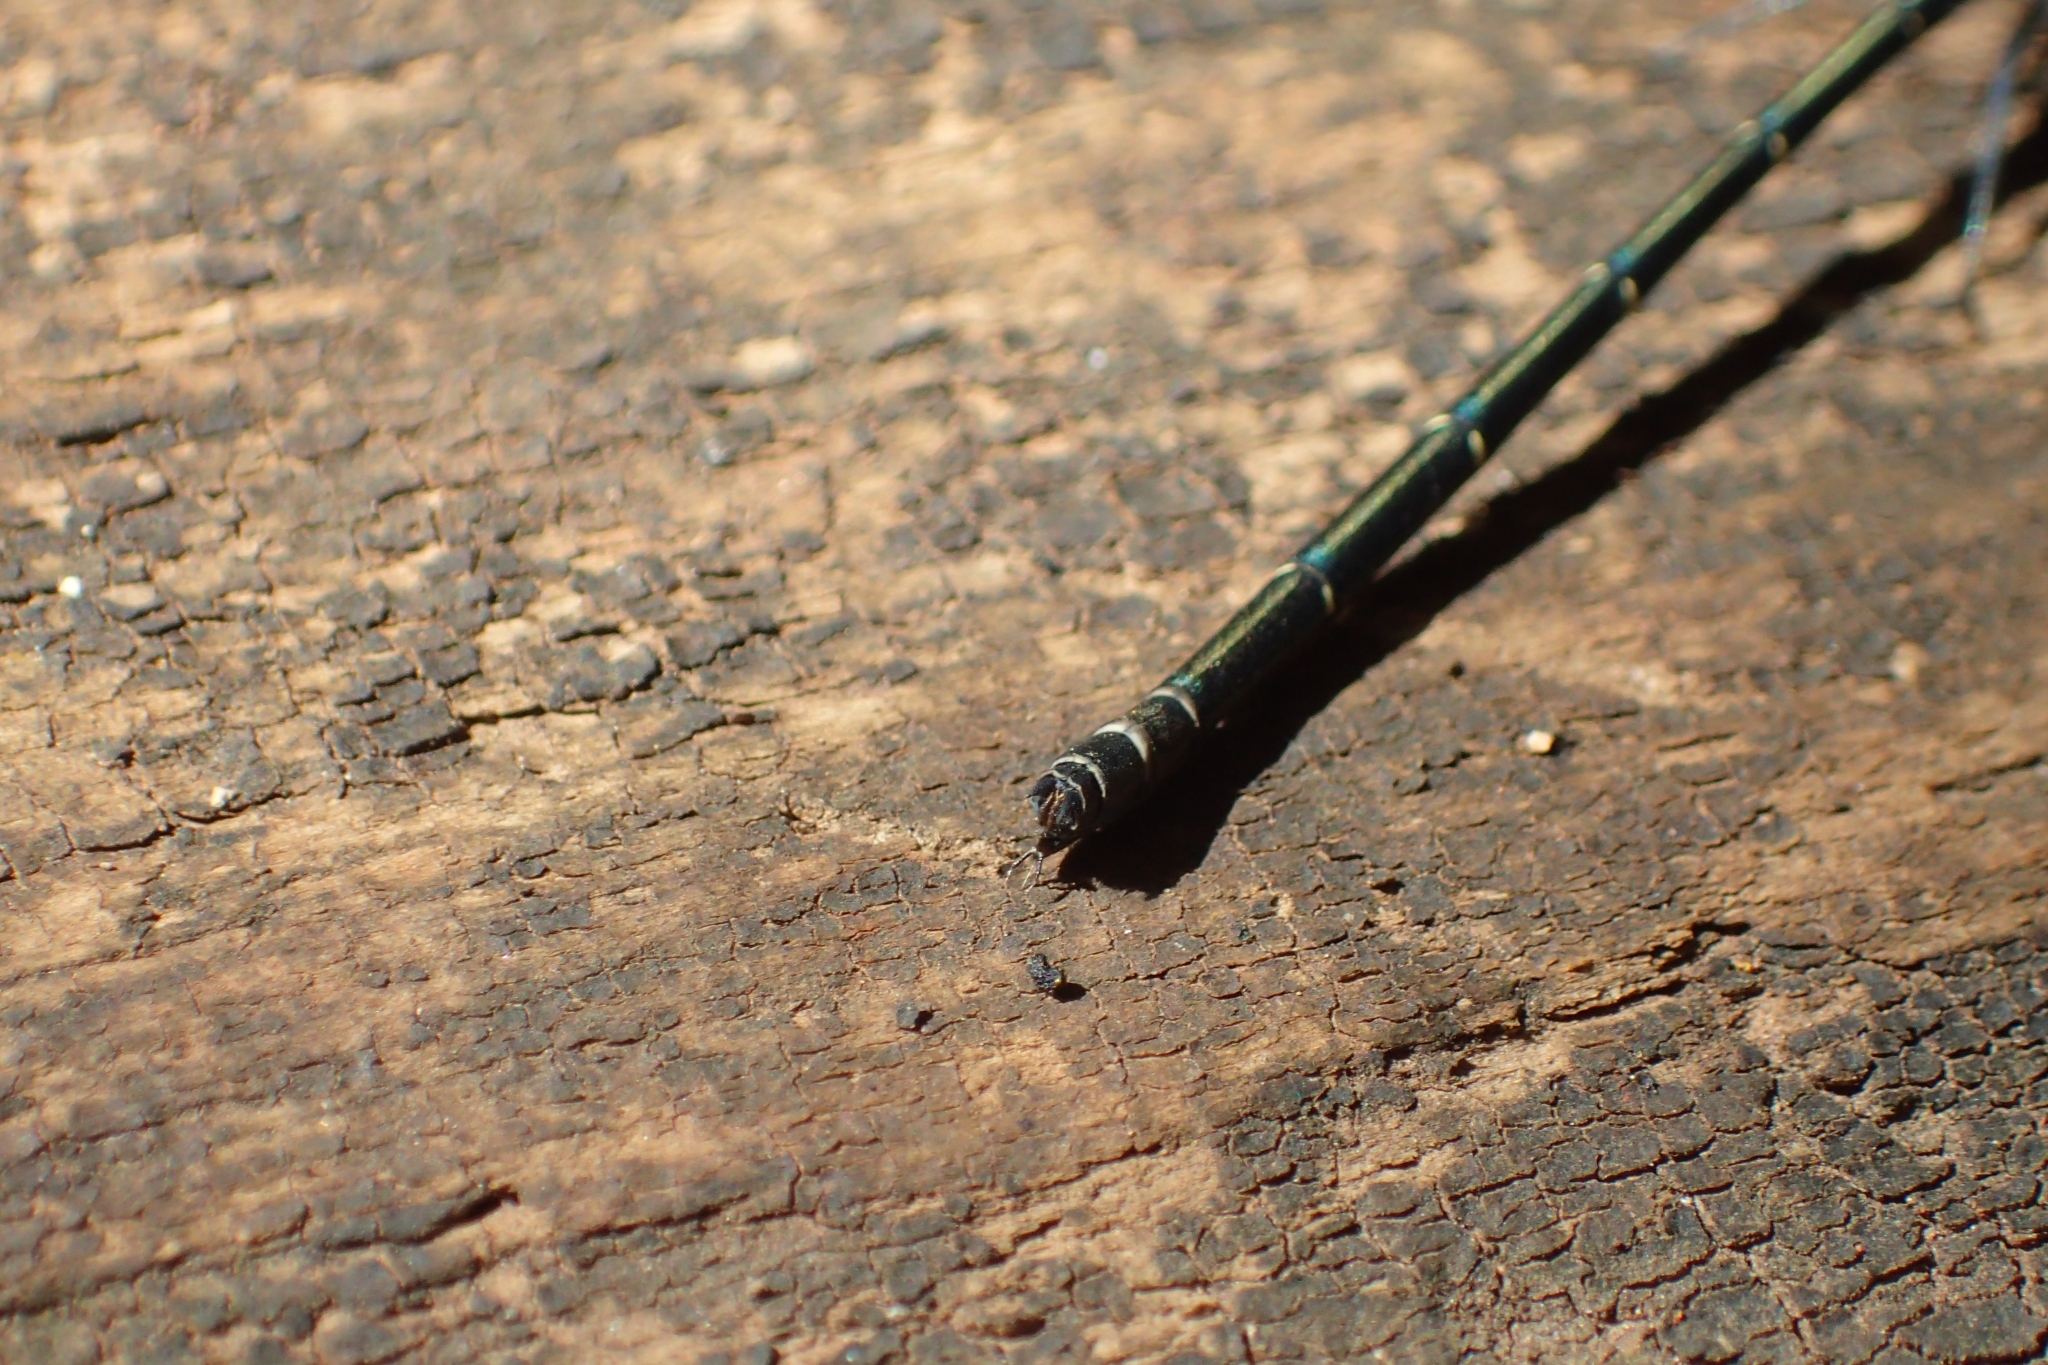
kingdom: Animalia
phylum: Arthropoda
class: Insecta
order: Odonata
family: Argiolestidae
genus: Austroargiolestes
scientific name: Austroargiolestes icteromelas
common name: Common flatwing
